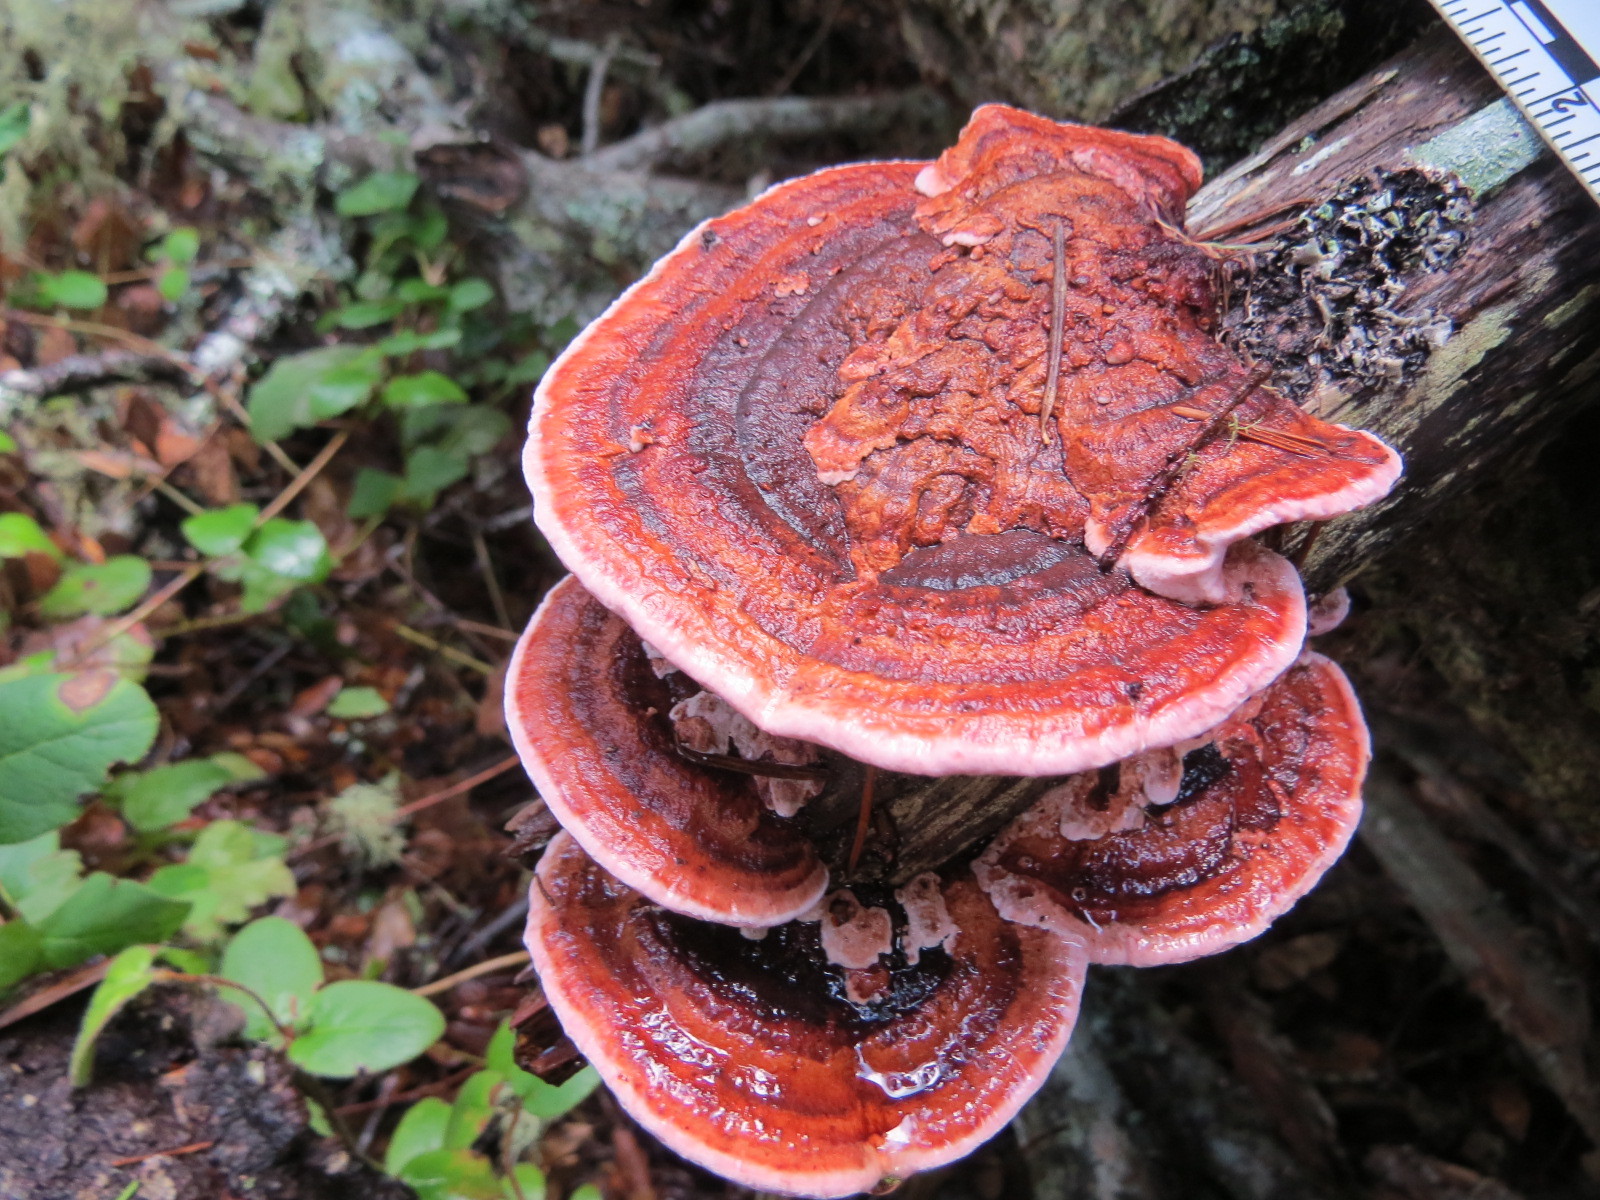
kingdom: Fungi
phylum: Basidiomycota
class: Agaricomycetes
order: Polyporales
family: Fomitopsidaceae
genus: Rhodofomes
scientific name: Rhodofomes cajanderi
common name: Rosy conk
